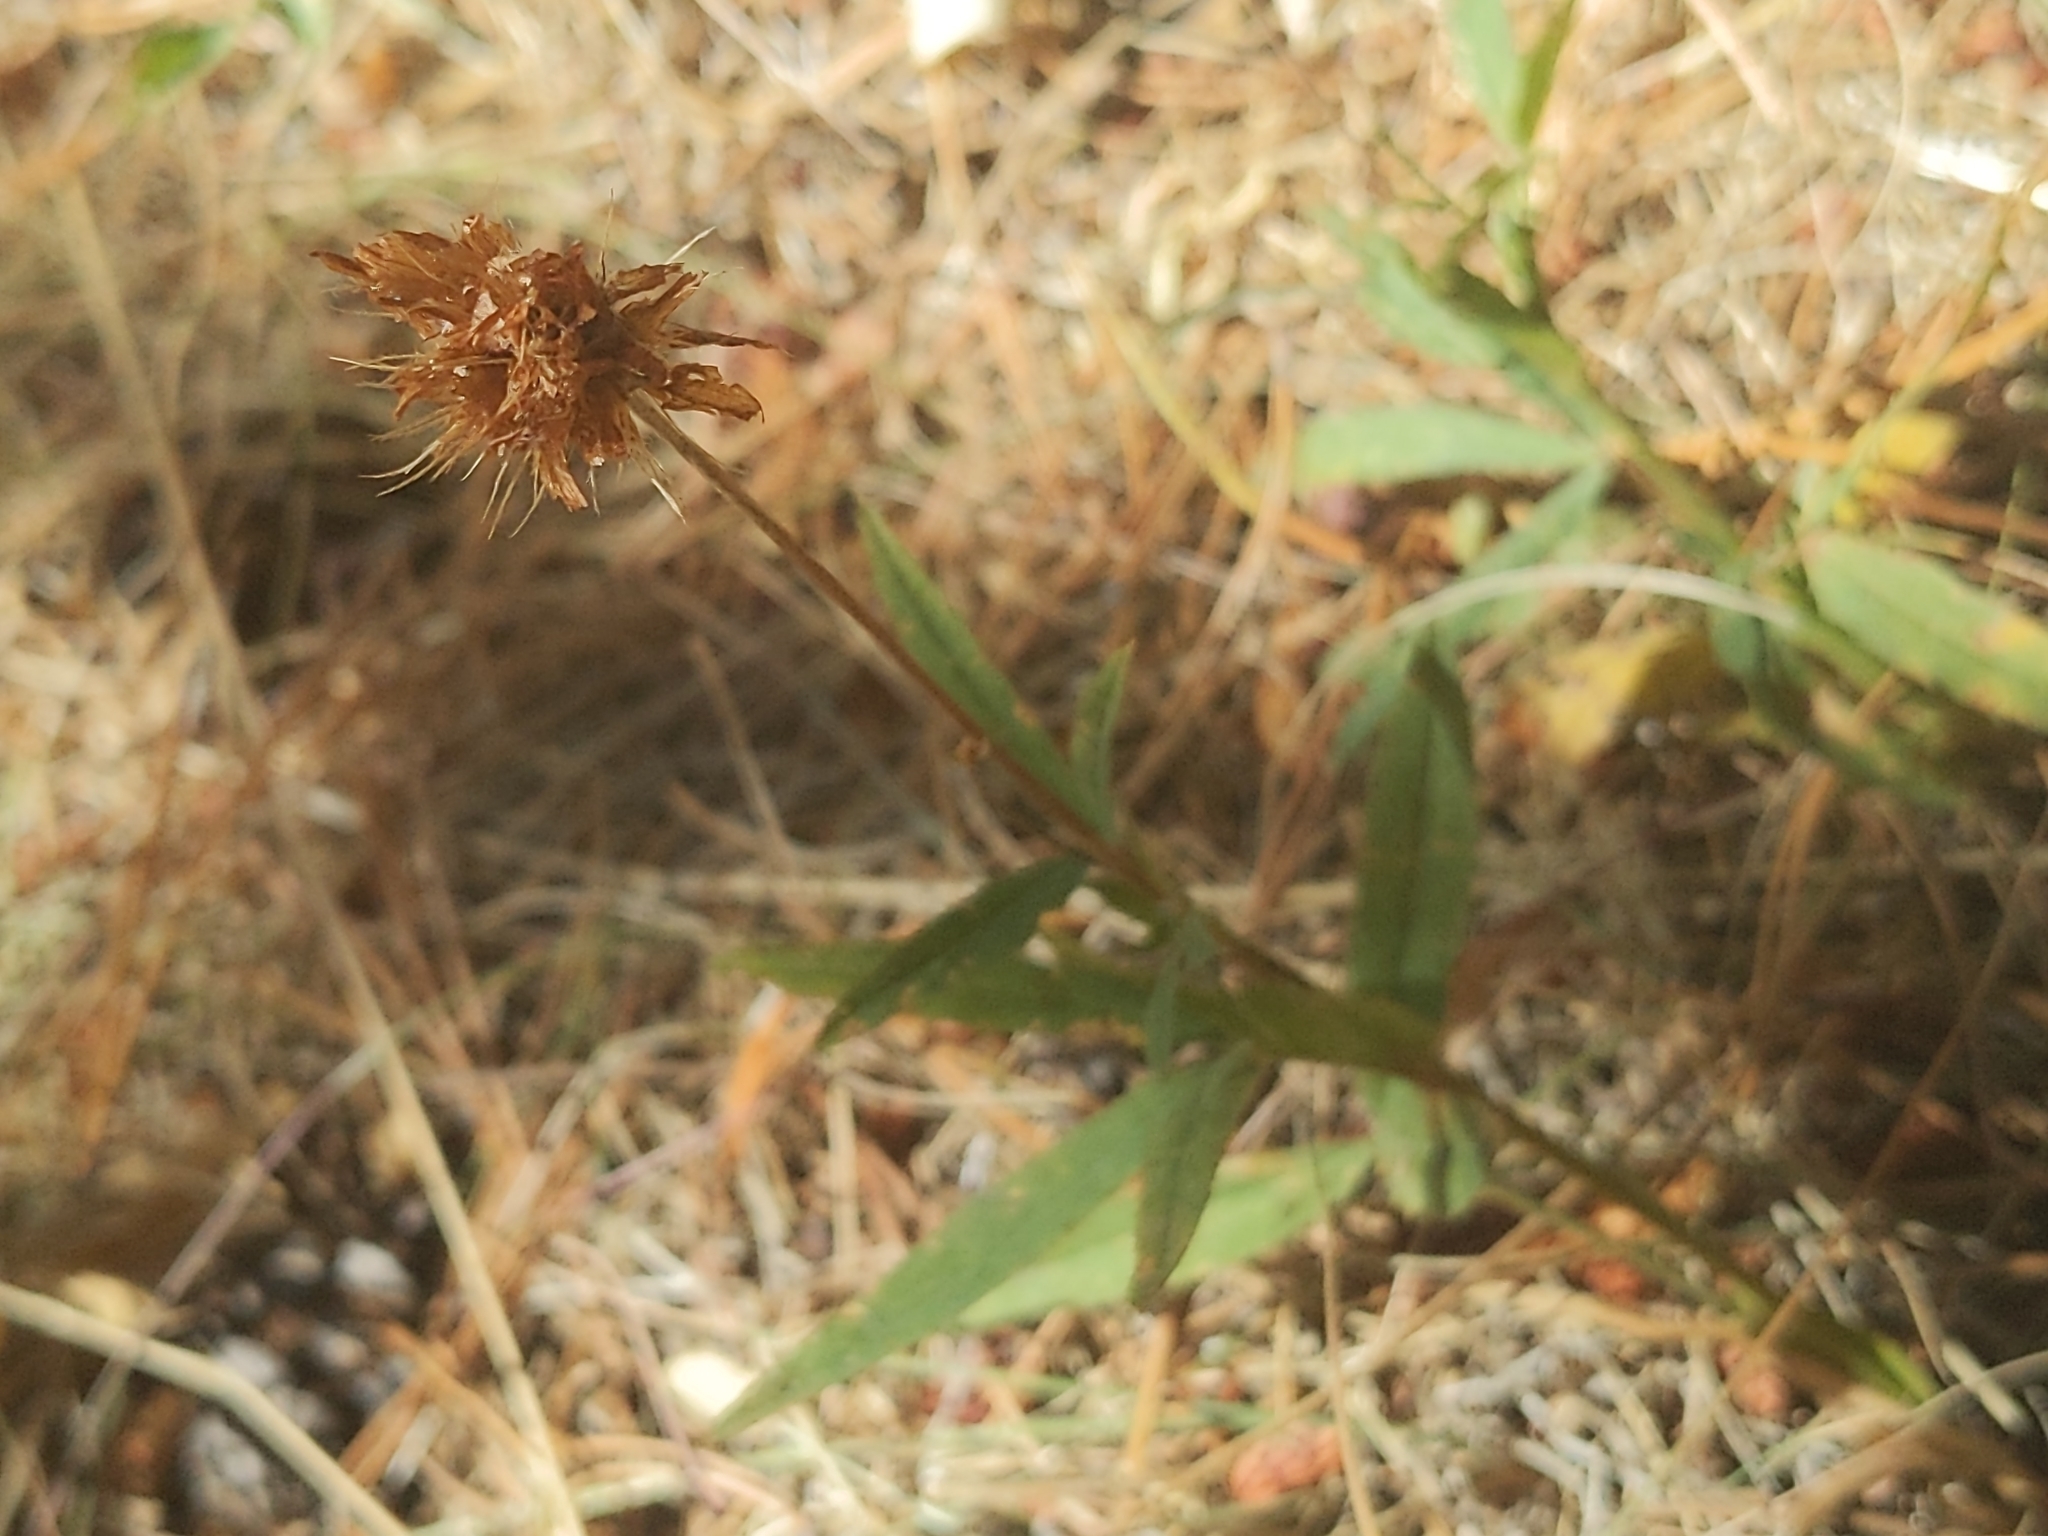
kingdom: Plantae
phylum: Tracheophyta
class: Magnoliopsida
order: Fabales
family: Fabaceae
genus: Trifolium
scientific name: Trifolium longipes
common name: Long-stalk clover
